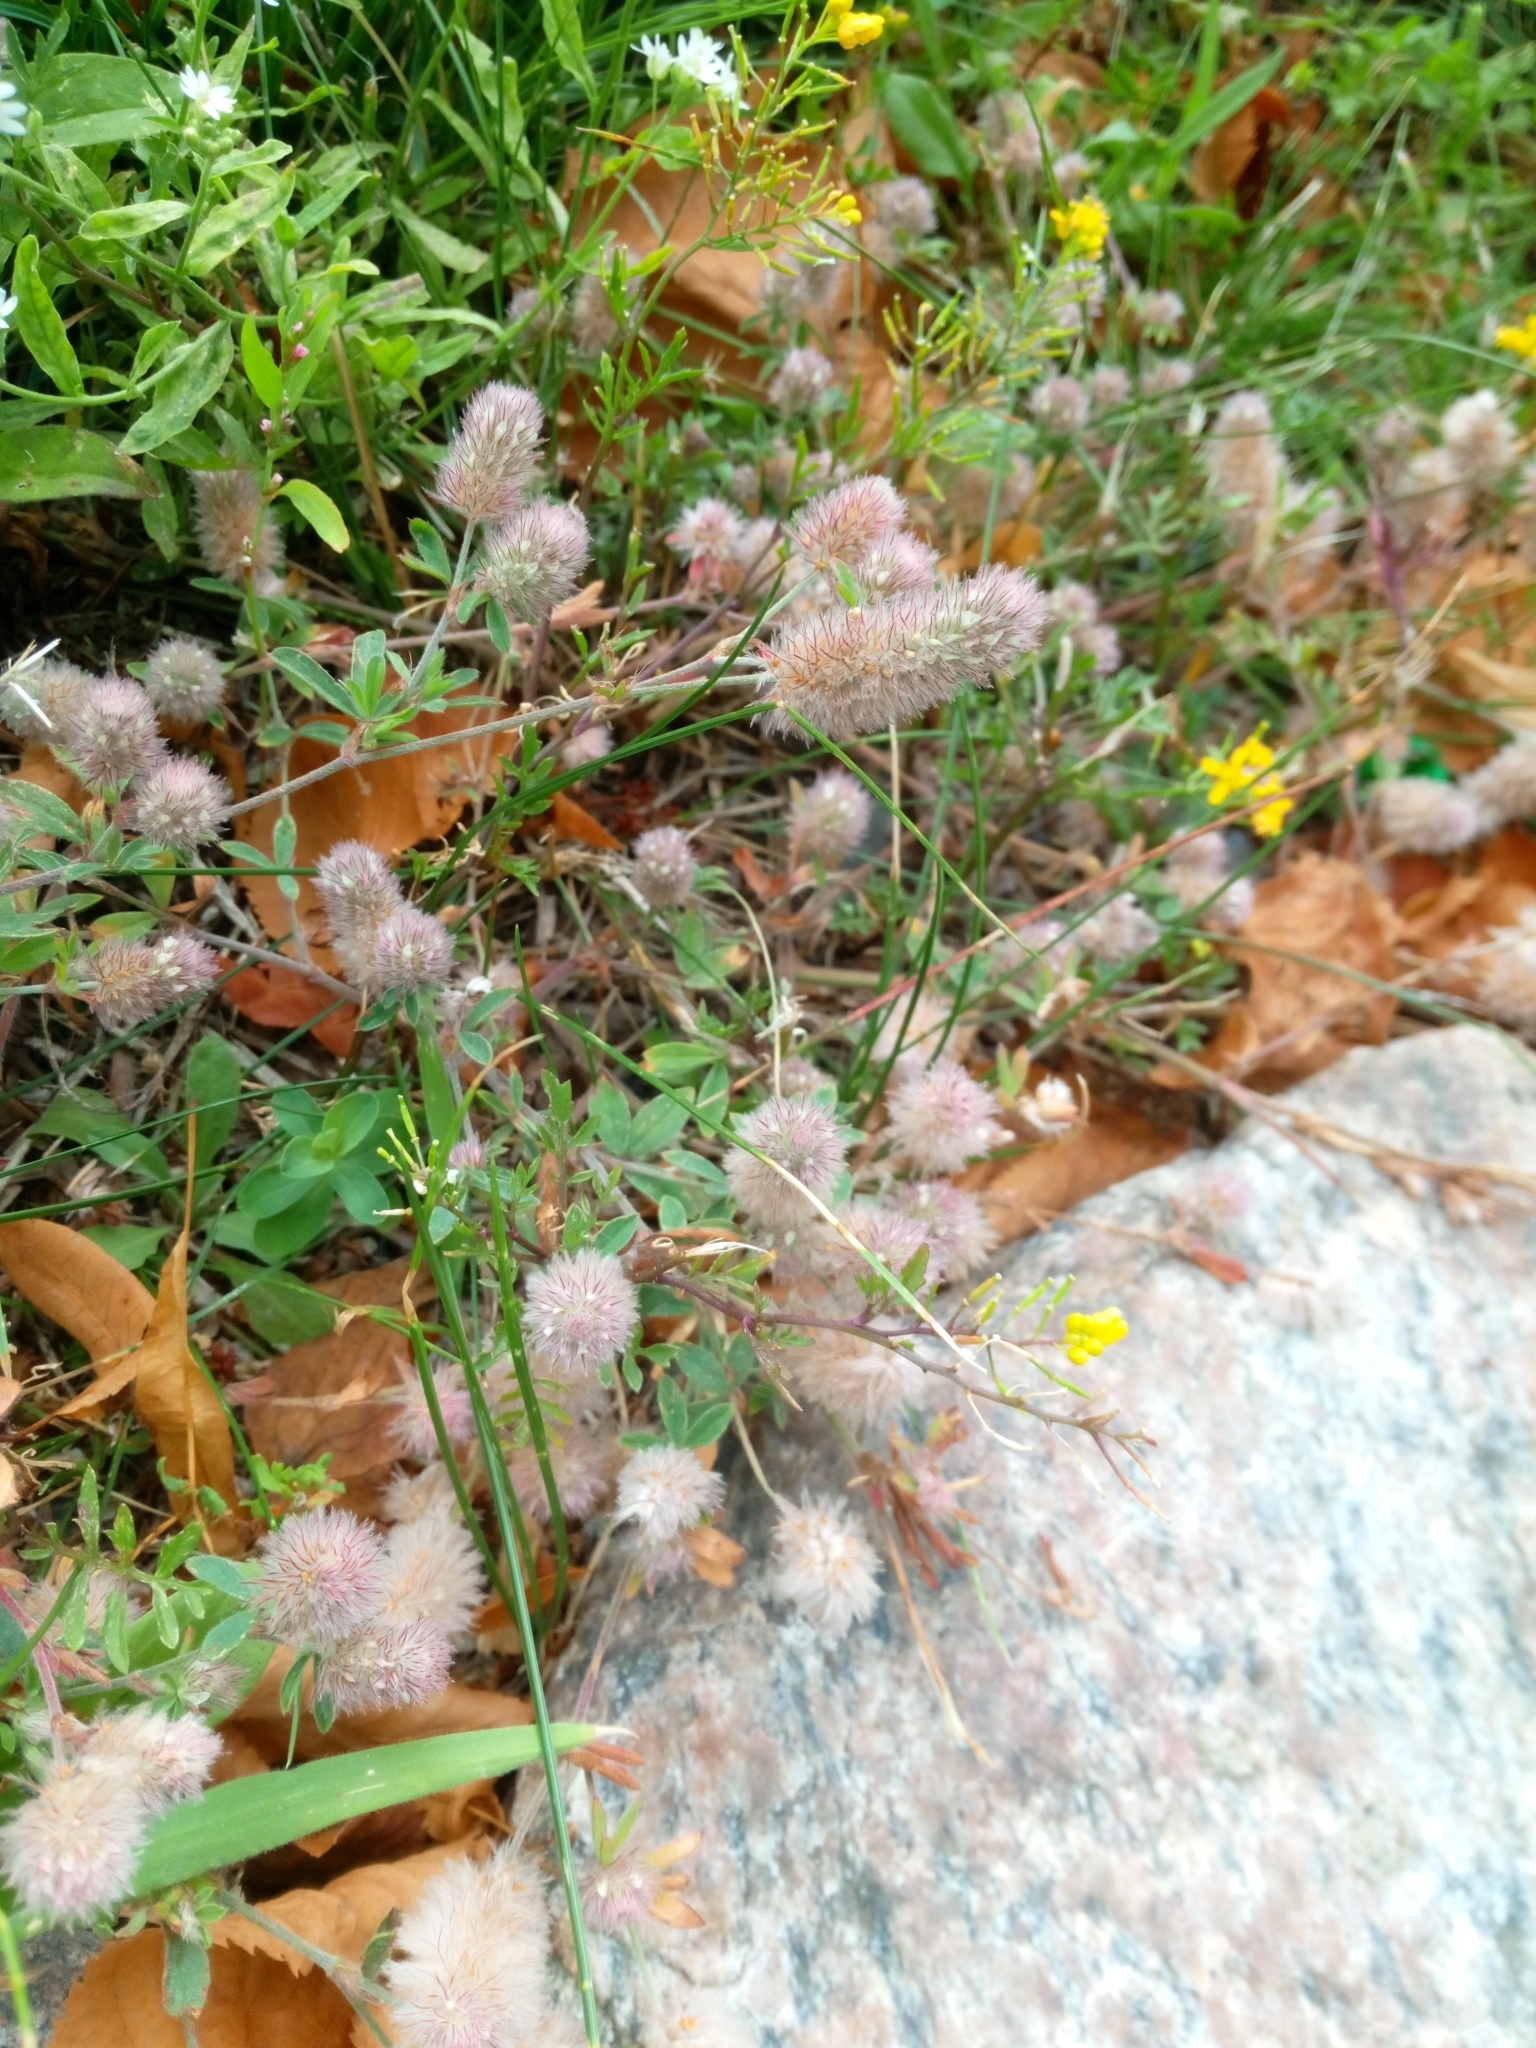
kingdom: Plantae
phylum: Tracheophyta
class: Magnoliopsida
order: Fabales
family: Fabaceae
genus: Trifolium
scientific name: Trifolium arvense
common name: Hare's-foot clover
